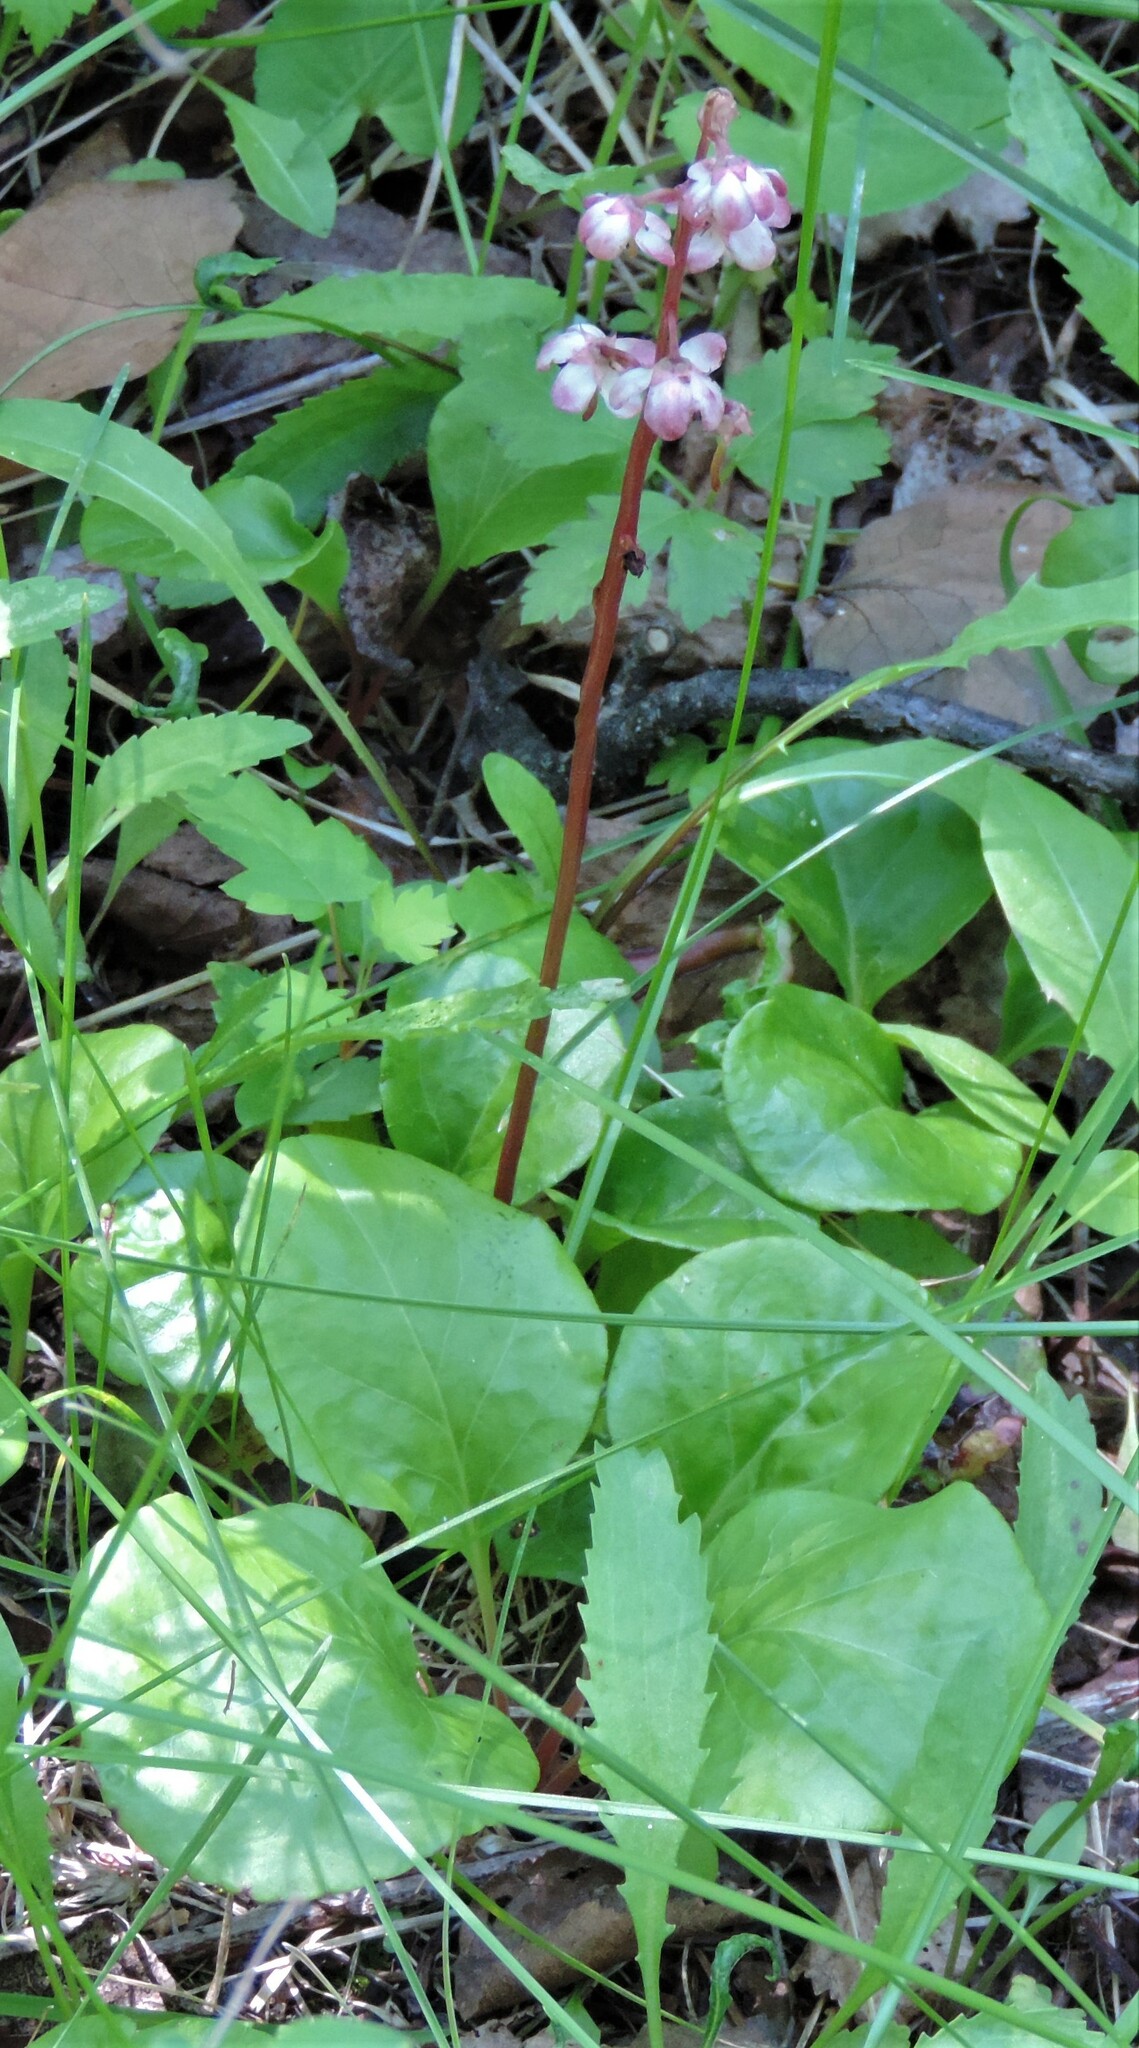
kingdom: Plantae
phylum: Tracheophyta
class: Magnoliopsida
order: Ericales
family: Ericaceae
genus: Pyrola
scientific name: Pyrola asarifolia
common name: Bog wintergreen
